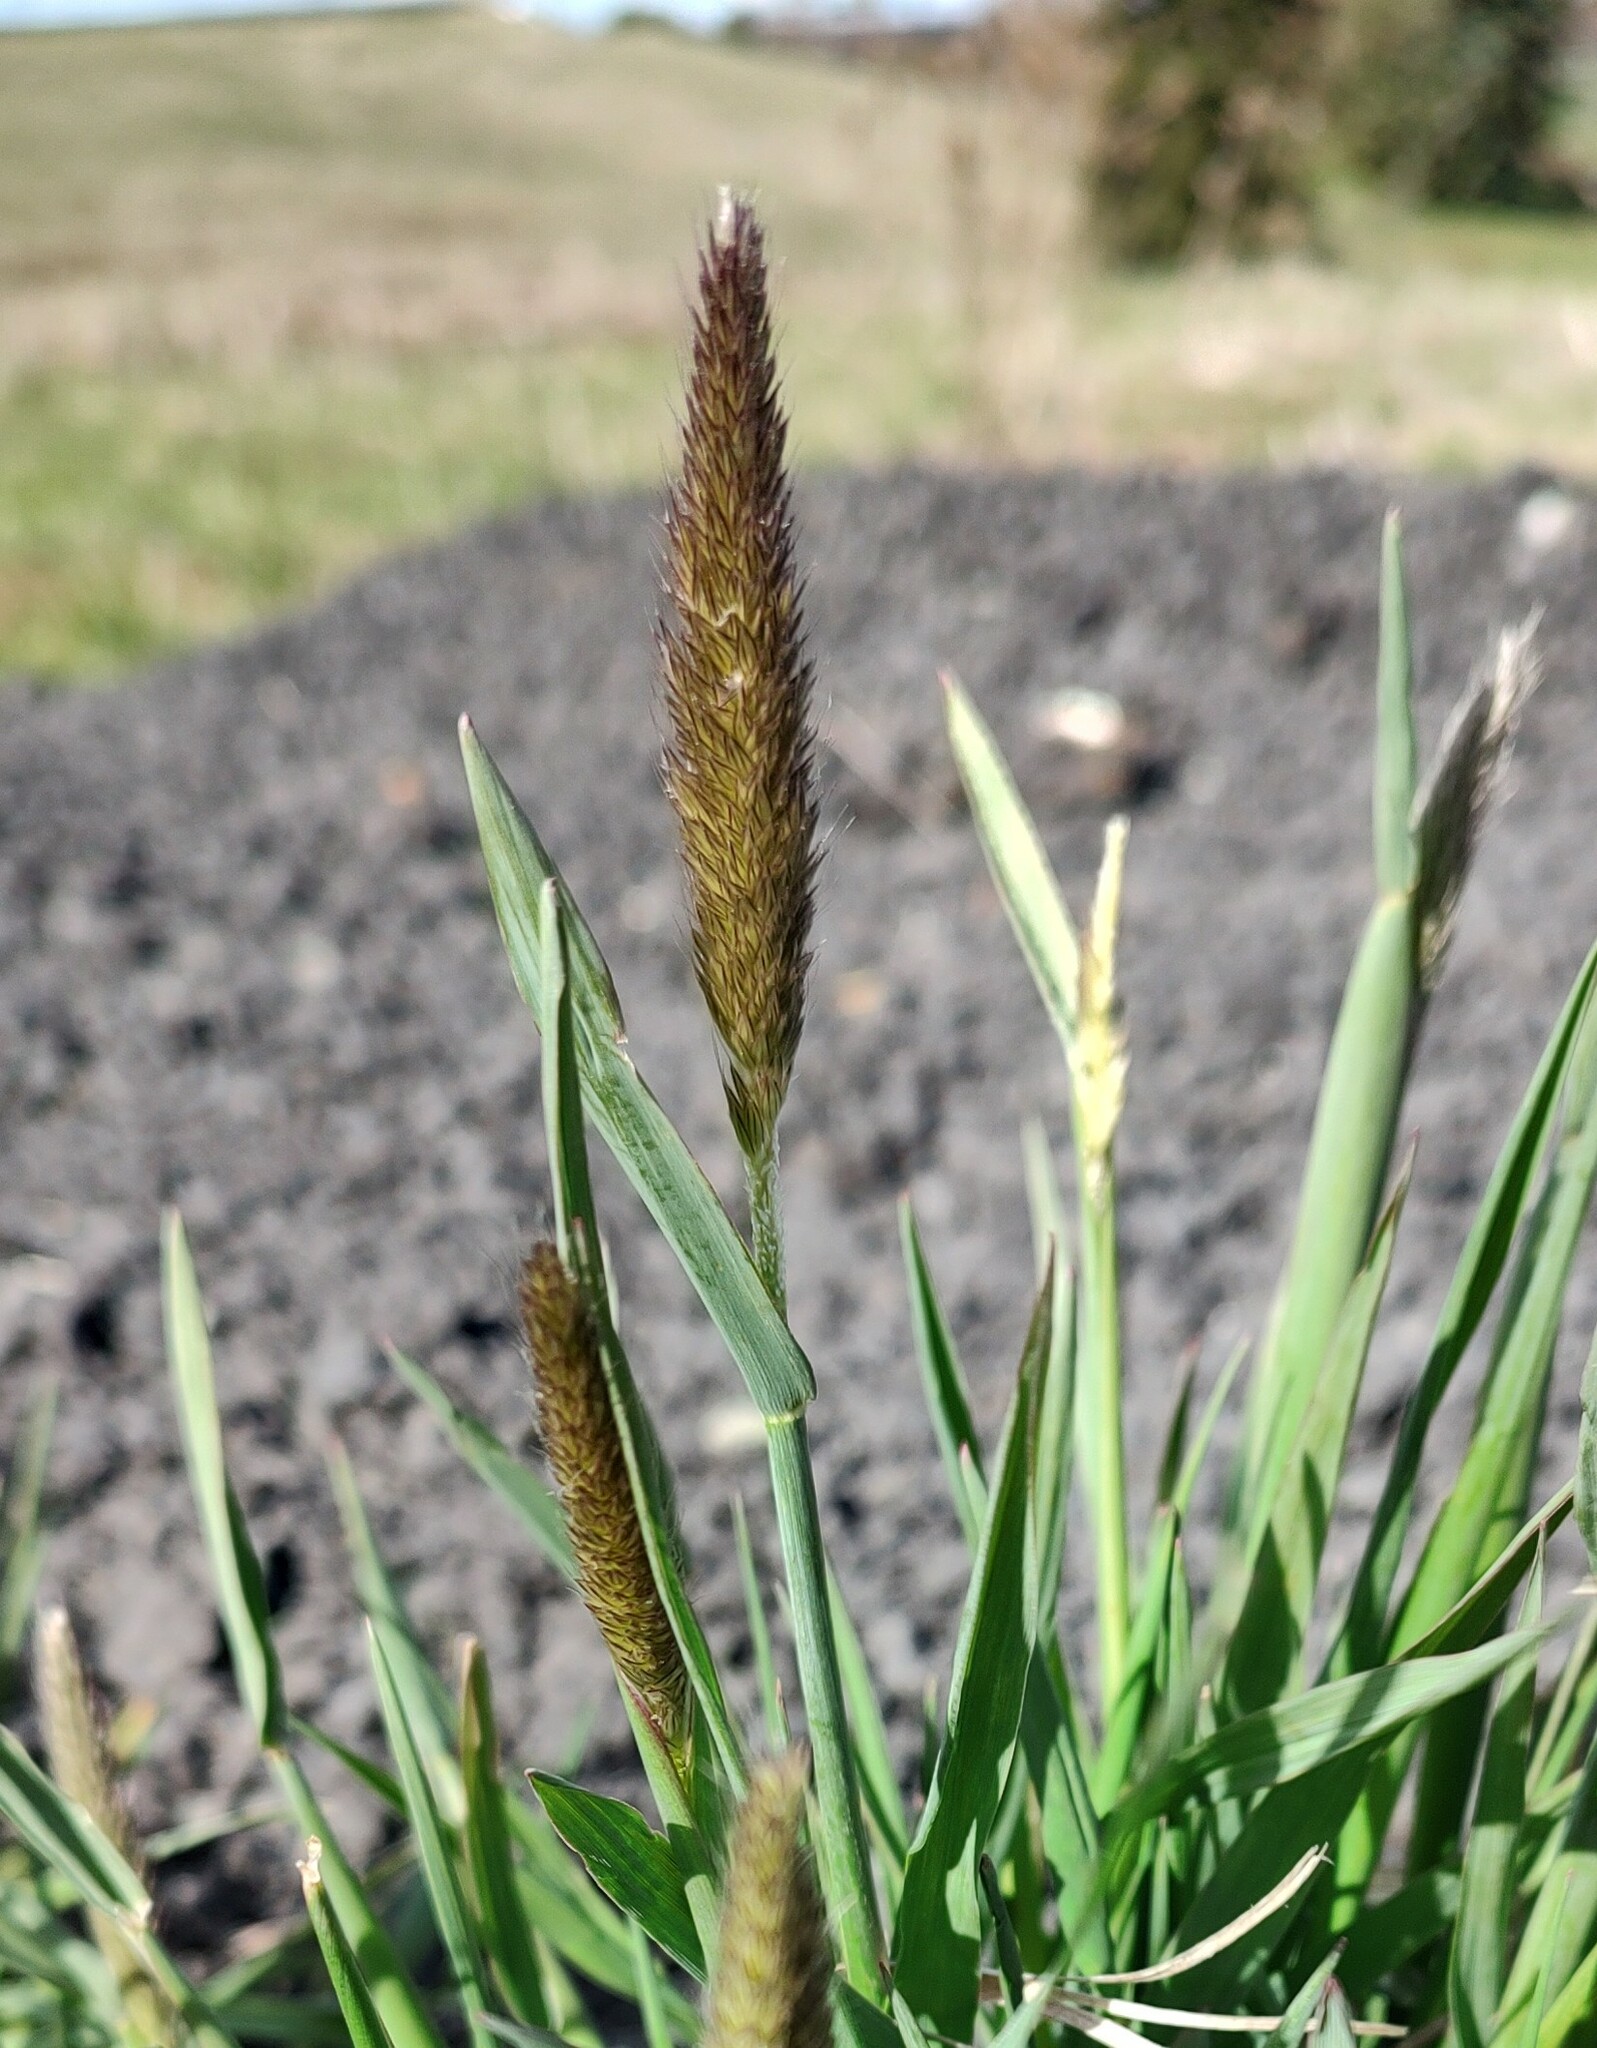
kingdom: Plantae
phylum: Tracheophyta
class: Liliopsida
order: Poales
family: Poaceae
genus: Alopecurus
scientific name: Alopecurus pratensis
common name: Meadow foxtail
